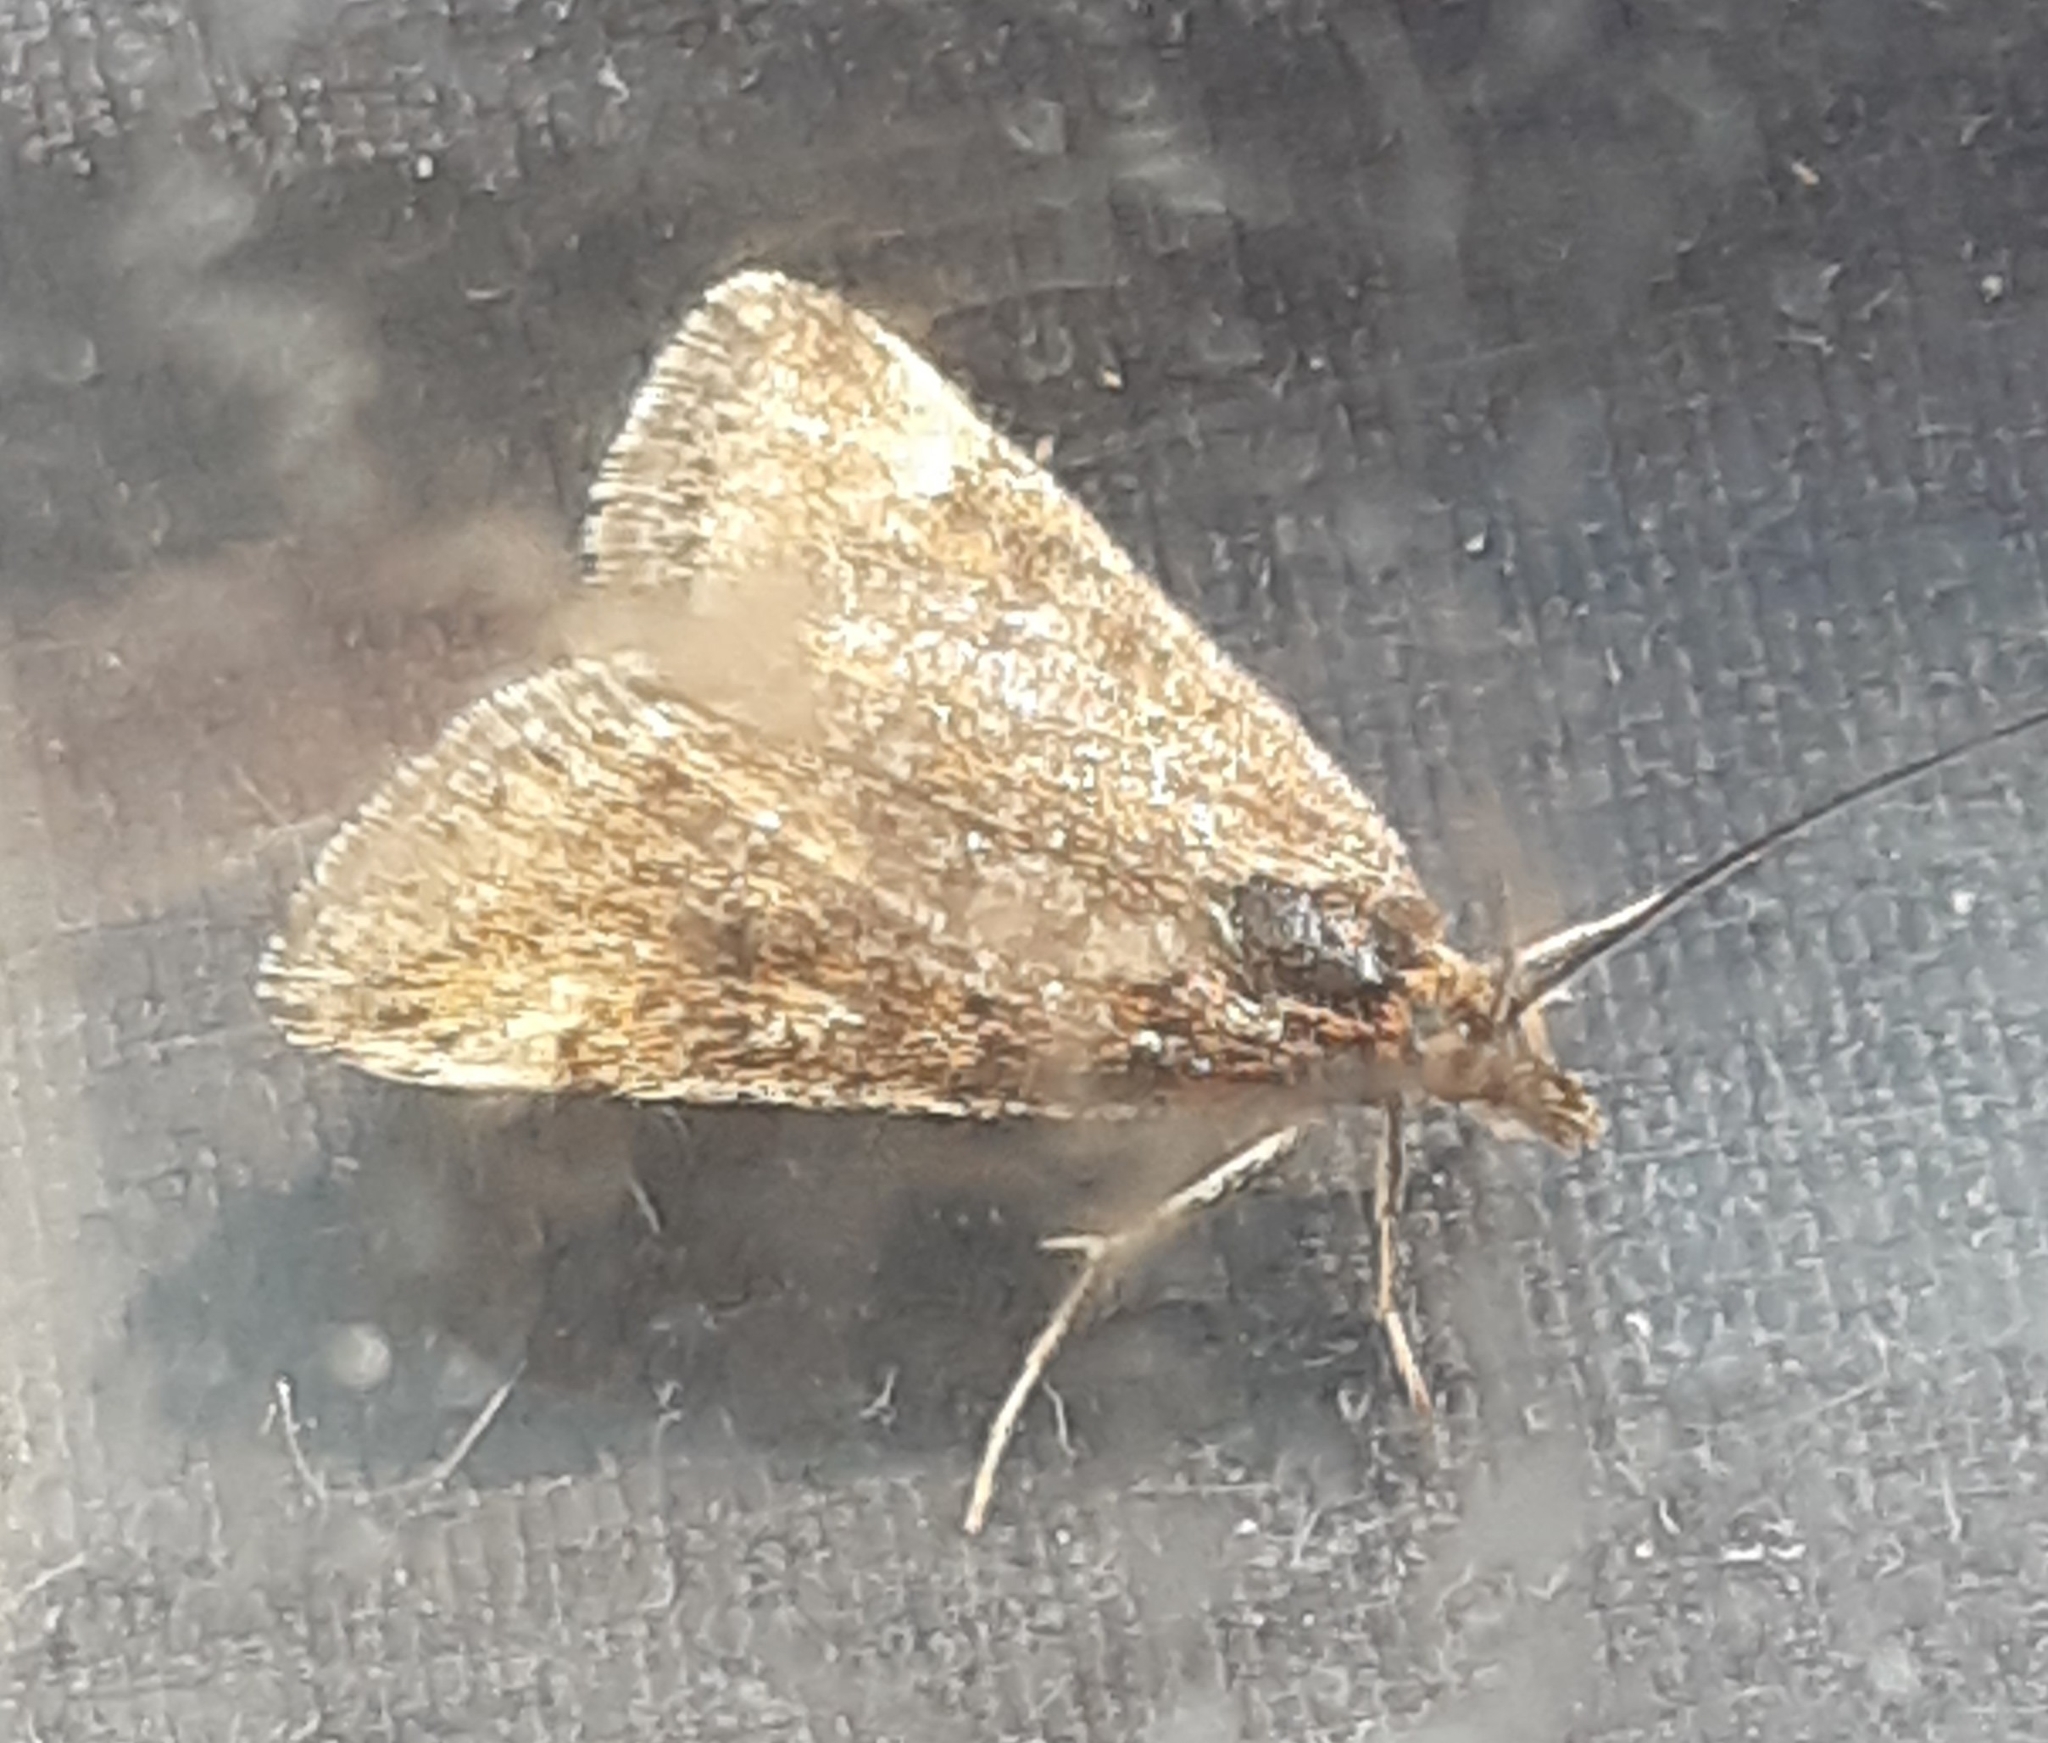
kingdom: Animalia
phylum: Arthropoda
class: Insecta
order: Lepidoptera
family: Crambidae
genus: Pyrausta
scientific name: Pyrausta despicata
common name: Straw-barred pearl
